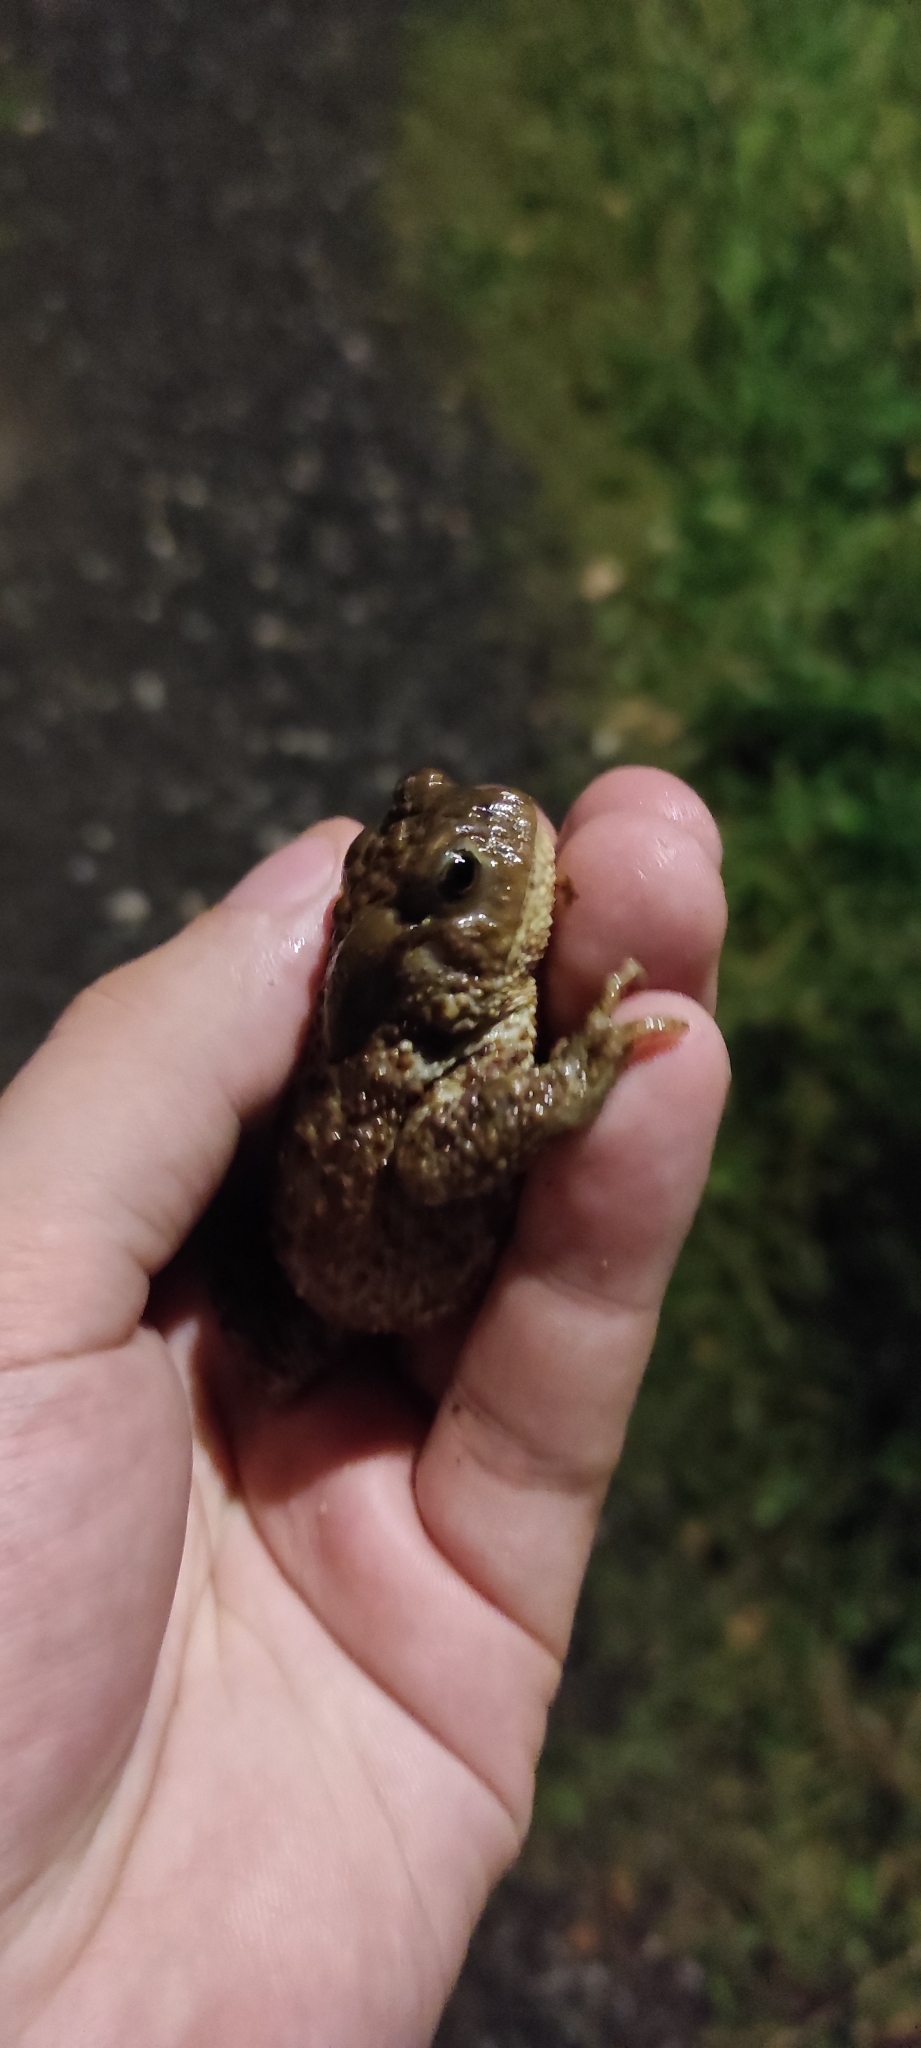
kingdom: Animalia
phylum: Chordata
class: Amphibia
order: Anura
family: Bufonidae
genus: Bufo
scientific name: Bufo bufo
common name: Common toad
